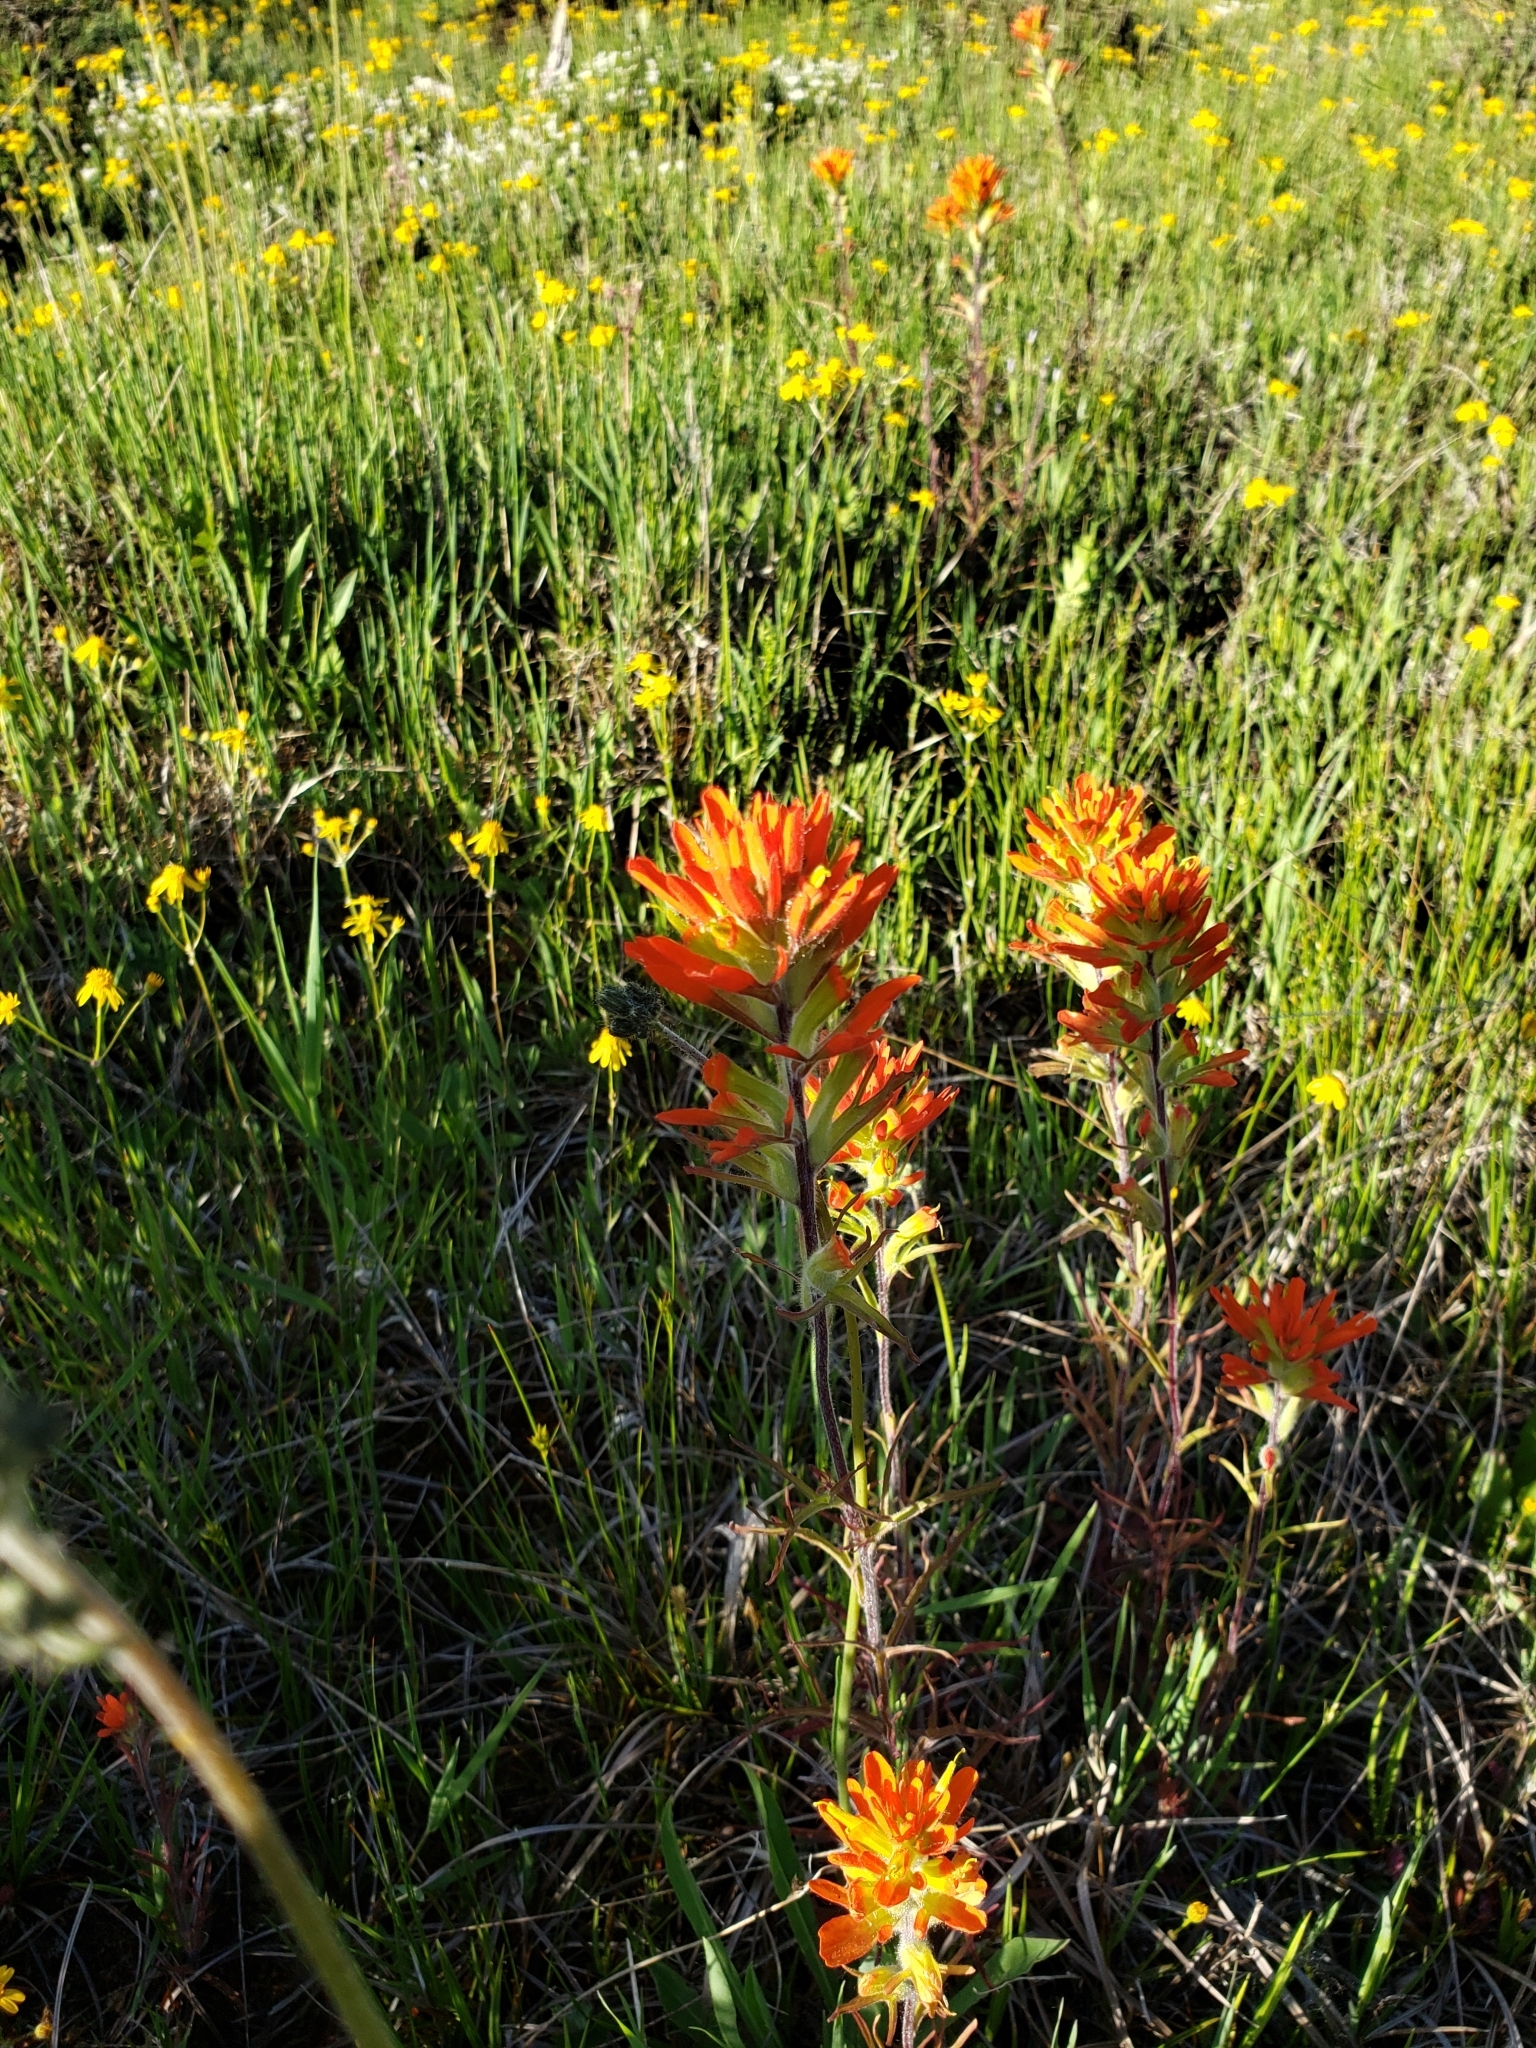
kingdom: Plantae
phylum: Tracheophyta
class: Magnoliopsida
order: Lamiales
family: Orobanchaceae
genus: Castilleja
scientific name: Castilleja coccinea
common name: Scarlet paintbrush
